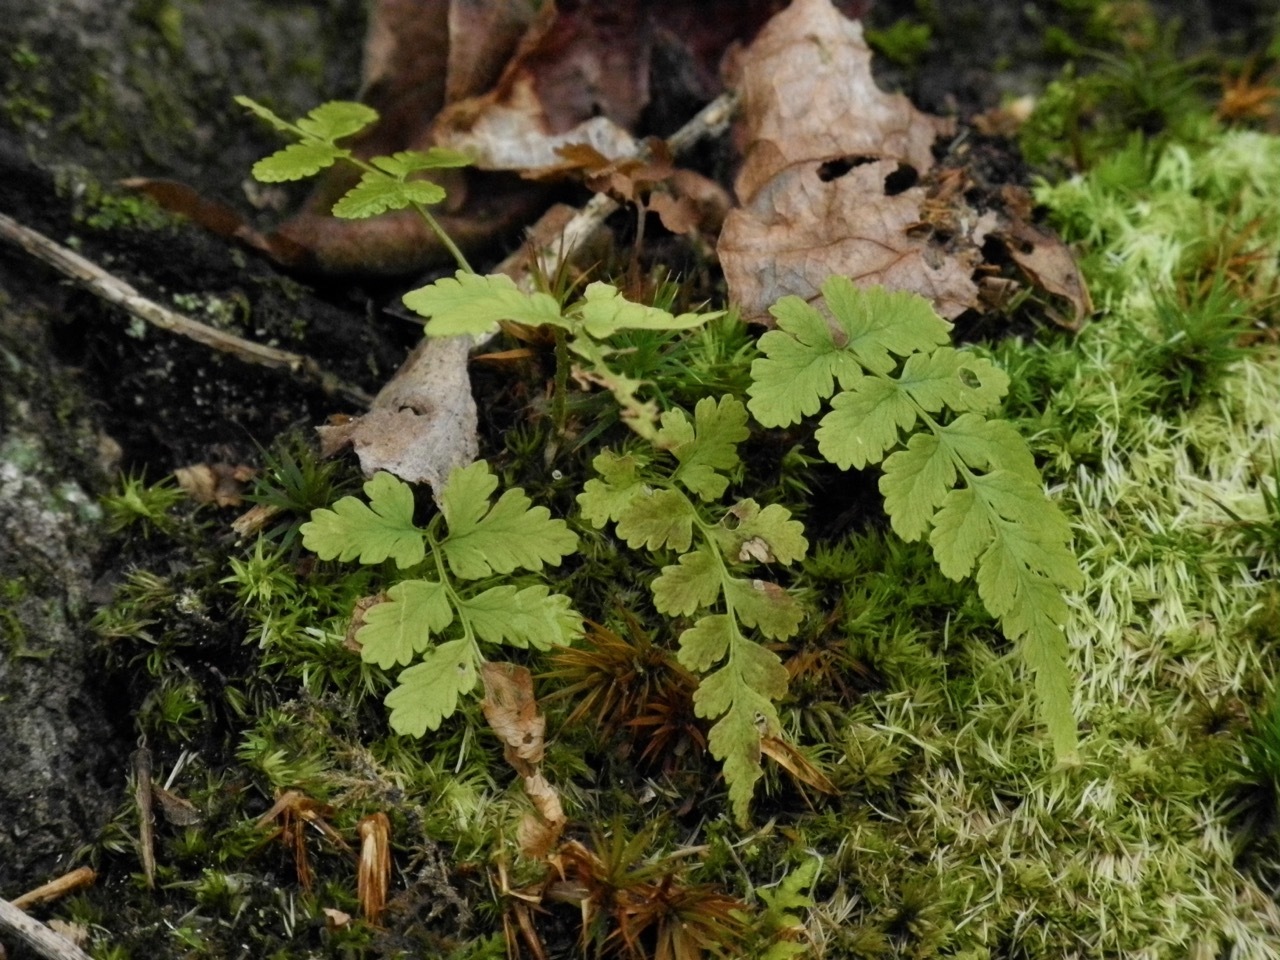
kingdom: Plantae
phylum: Tracheophyta
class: Polypodiopsida
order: Polypodiales
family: Dryopteridaceae
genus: Dryopteris
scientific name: Dryopteris marginalis
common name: Marginal wood fern
